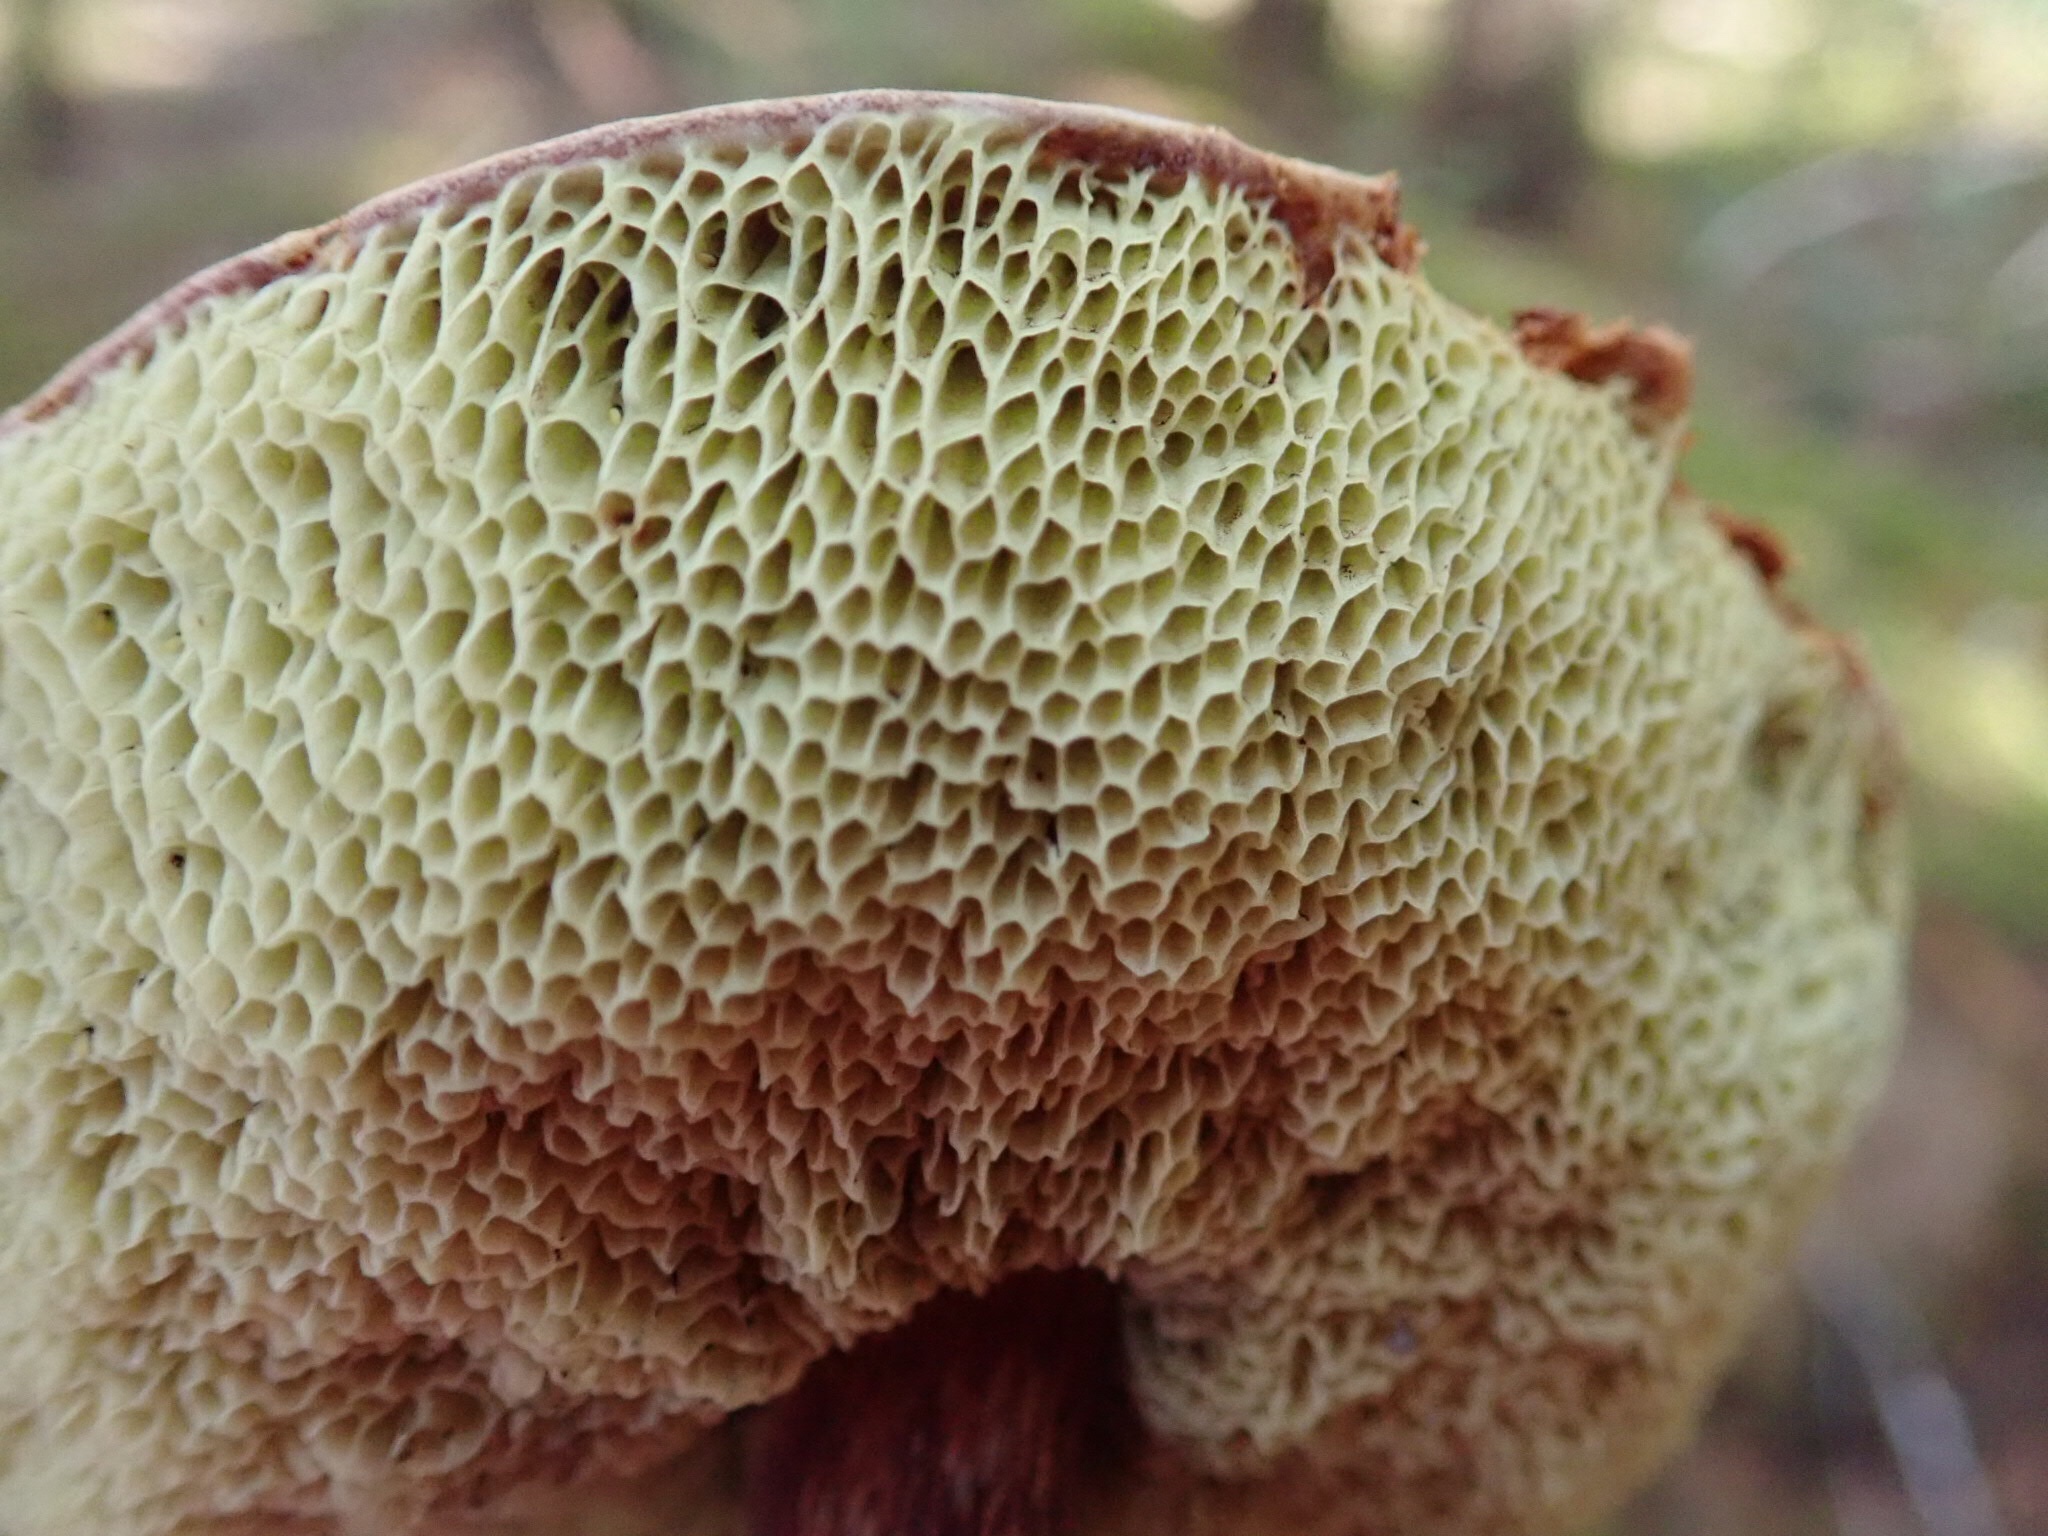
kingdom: Fungi
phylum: Basidiomycota
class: Agaricomycetes
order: Boletales
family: Boletaceae
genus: Aureoboletus
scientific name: Aureoboletus mirabilis
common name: Admirable bolete
